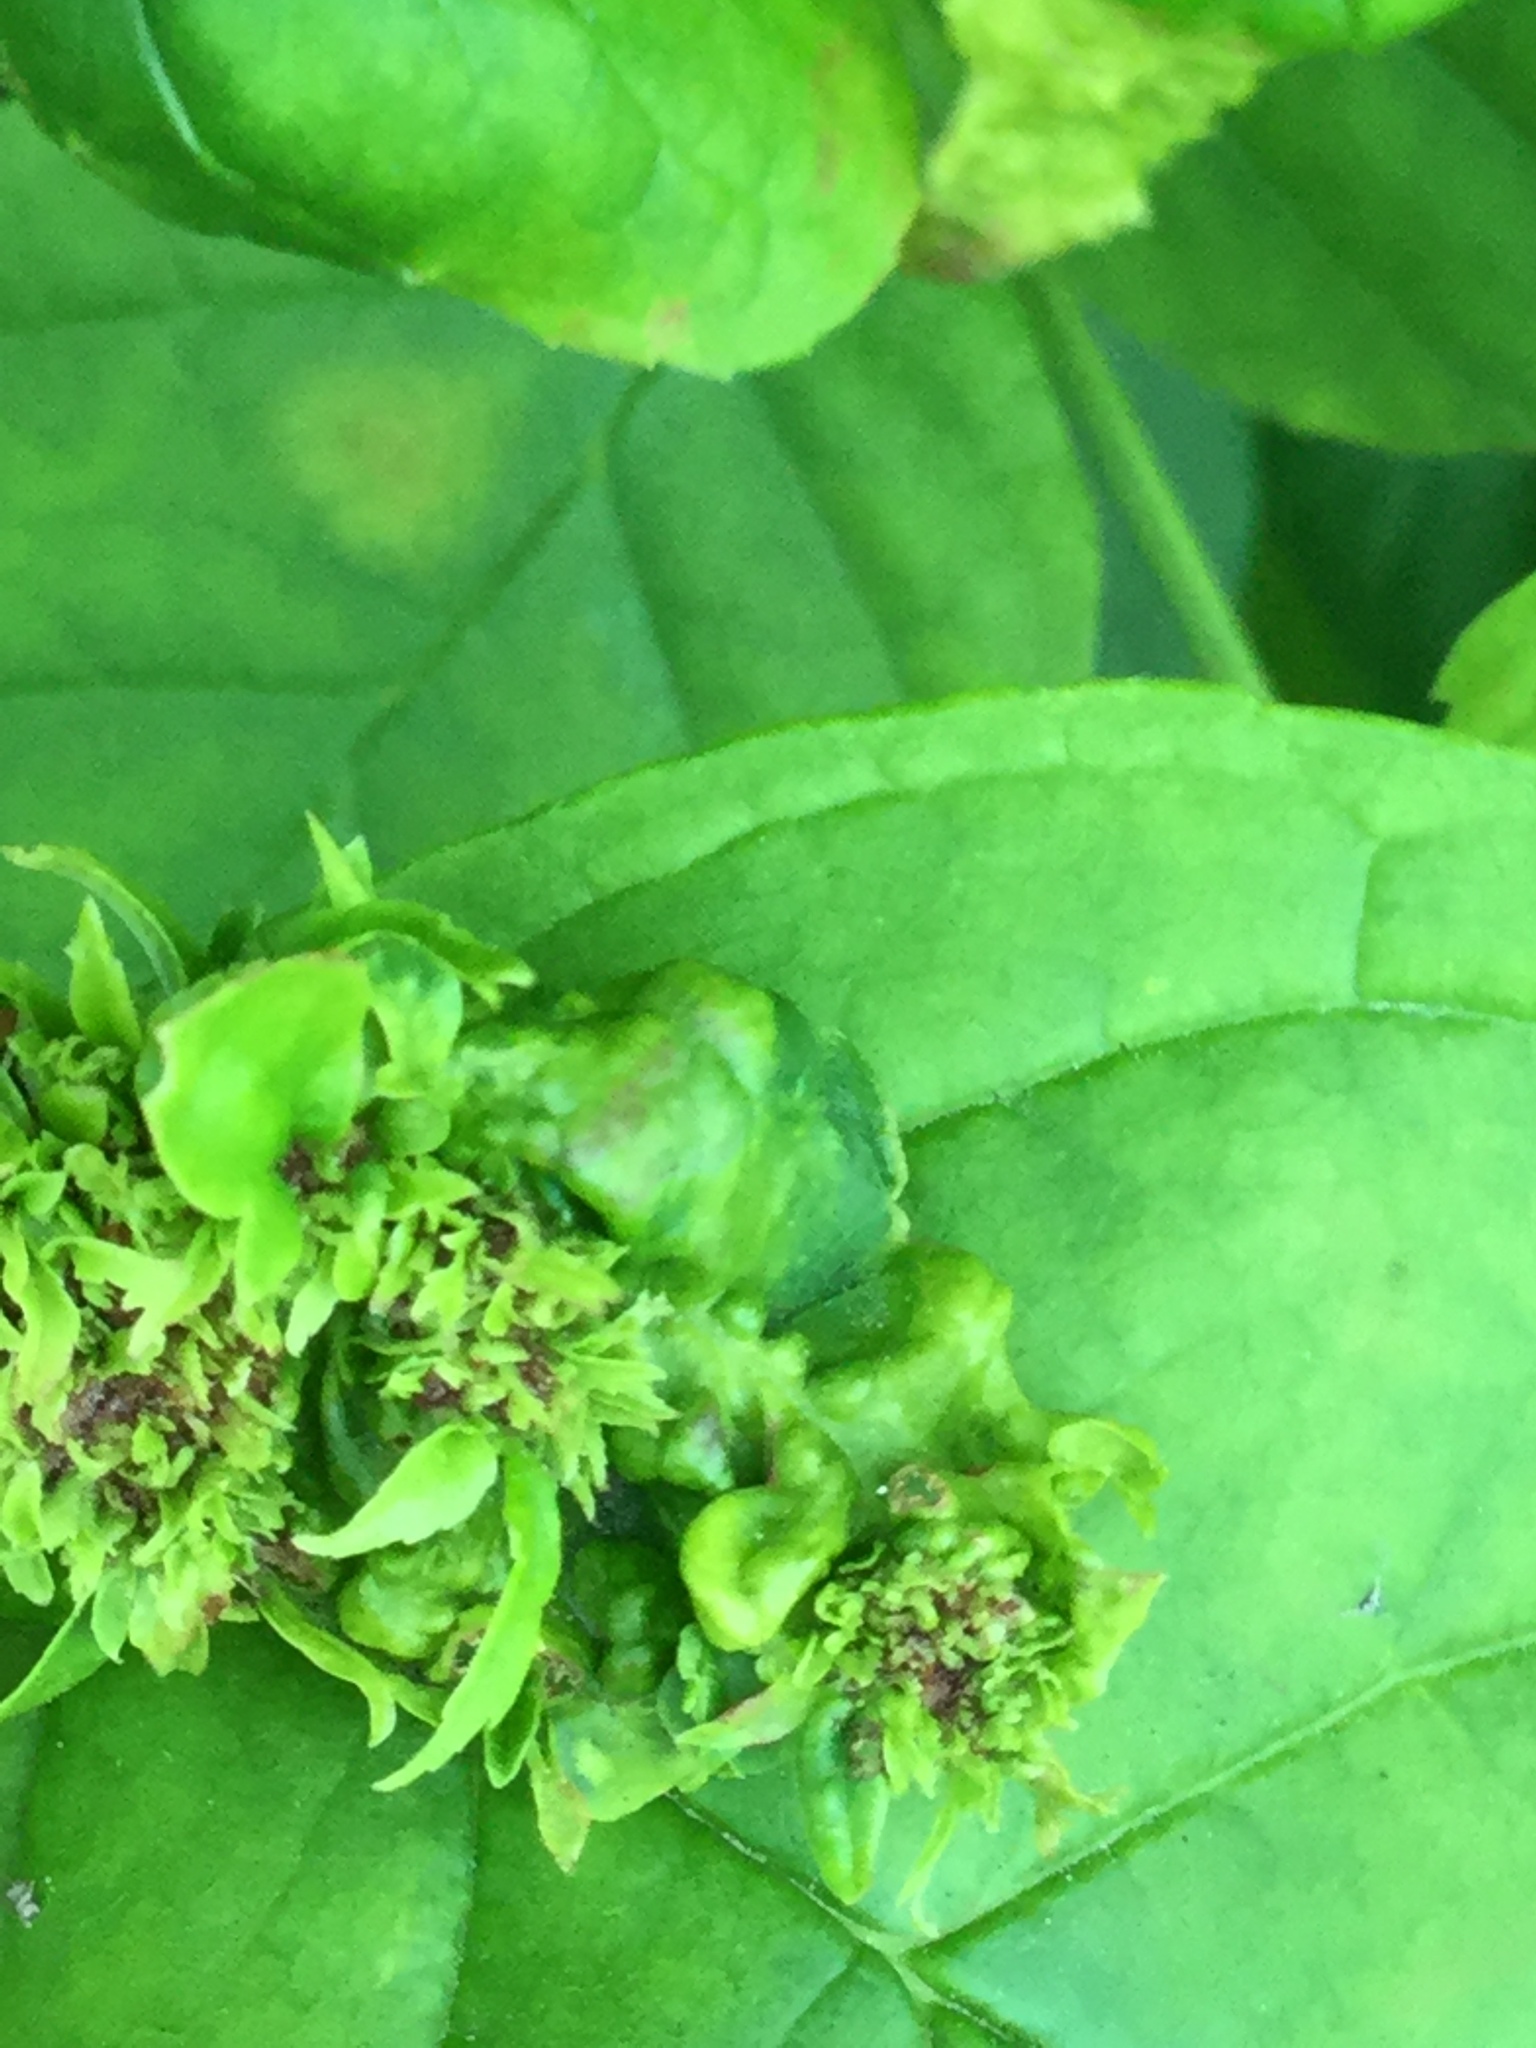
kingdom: Animalia
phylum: Arthropoda
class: Arachnida
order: Trombidiformes
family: Eriophyidae
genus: Aceria
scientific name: Aceria fraxiniflora
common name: Ash flower gall mite
